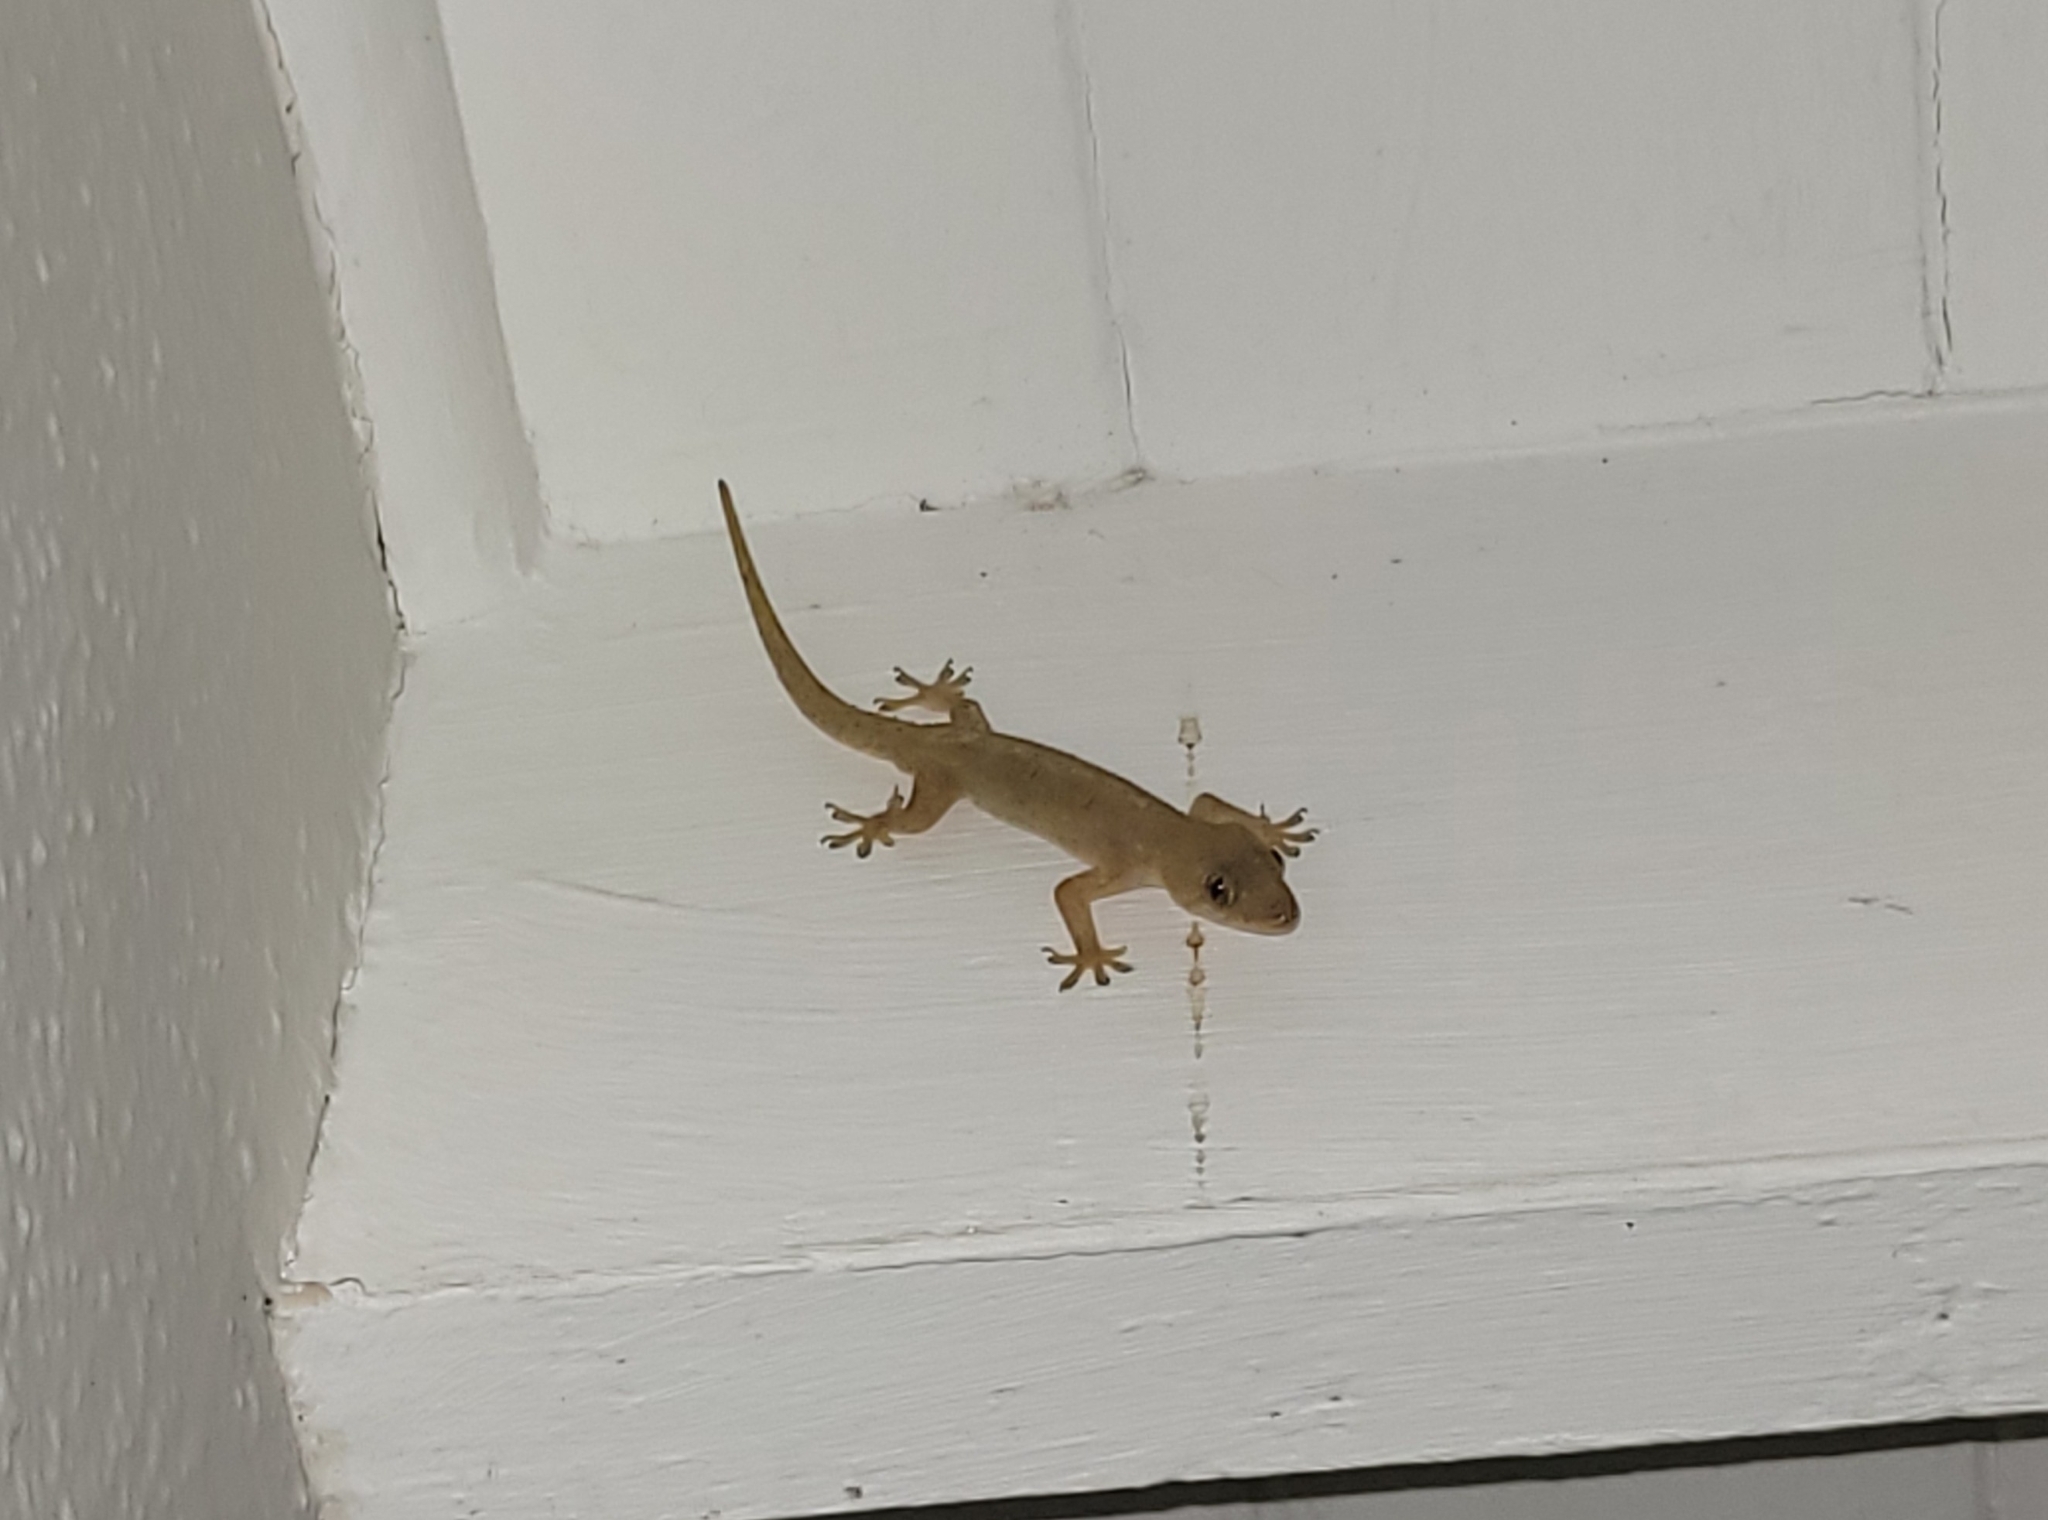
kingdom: Animalia
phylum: Chordata
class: Squamata
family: Gekkonidae
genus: Hemidactylus
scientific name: Hemidactylus mabouia
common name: House gecko
